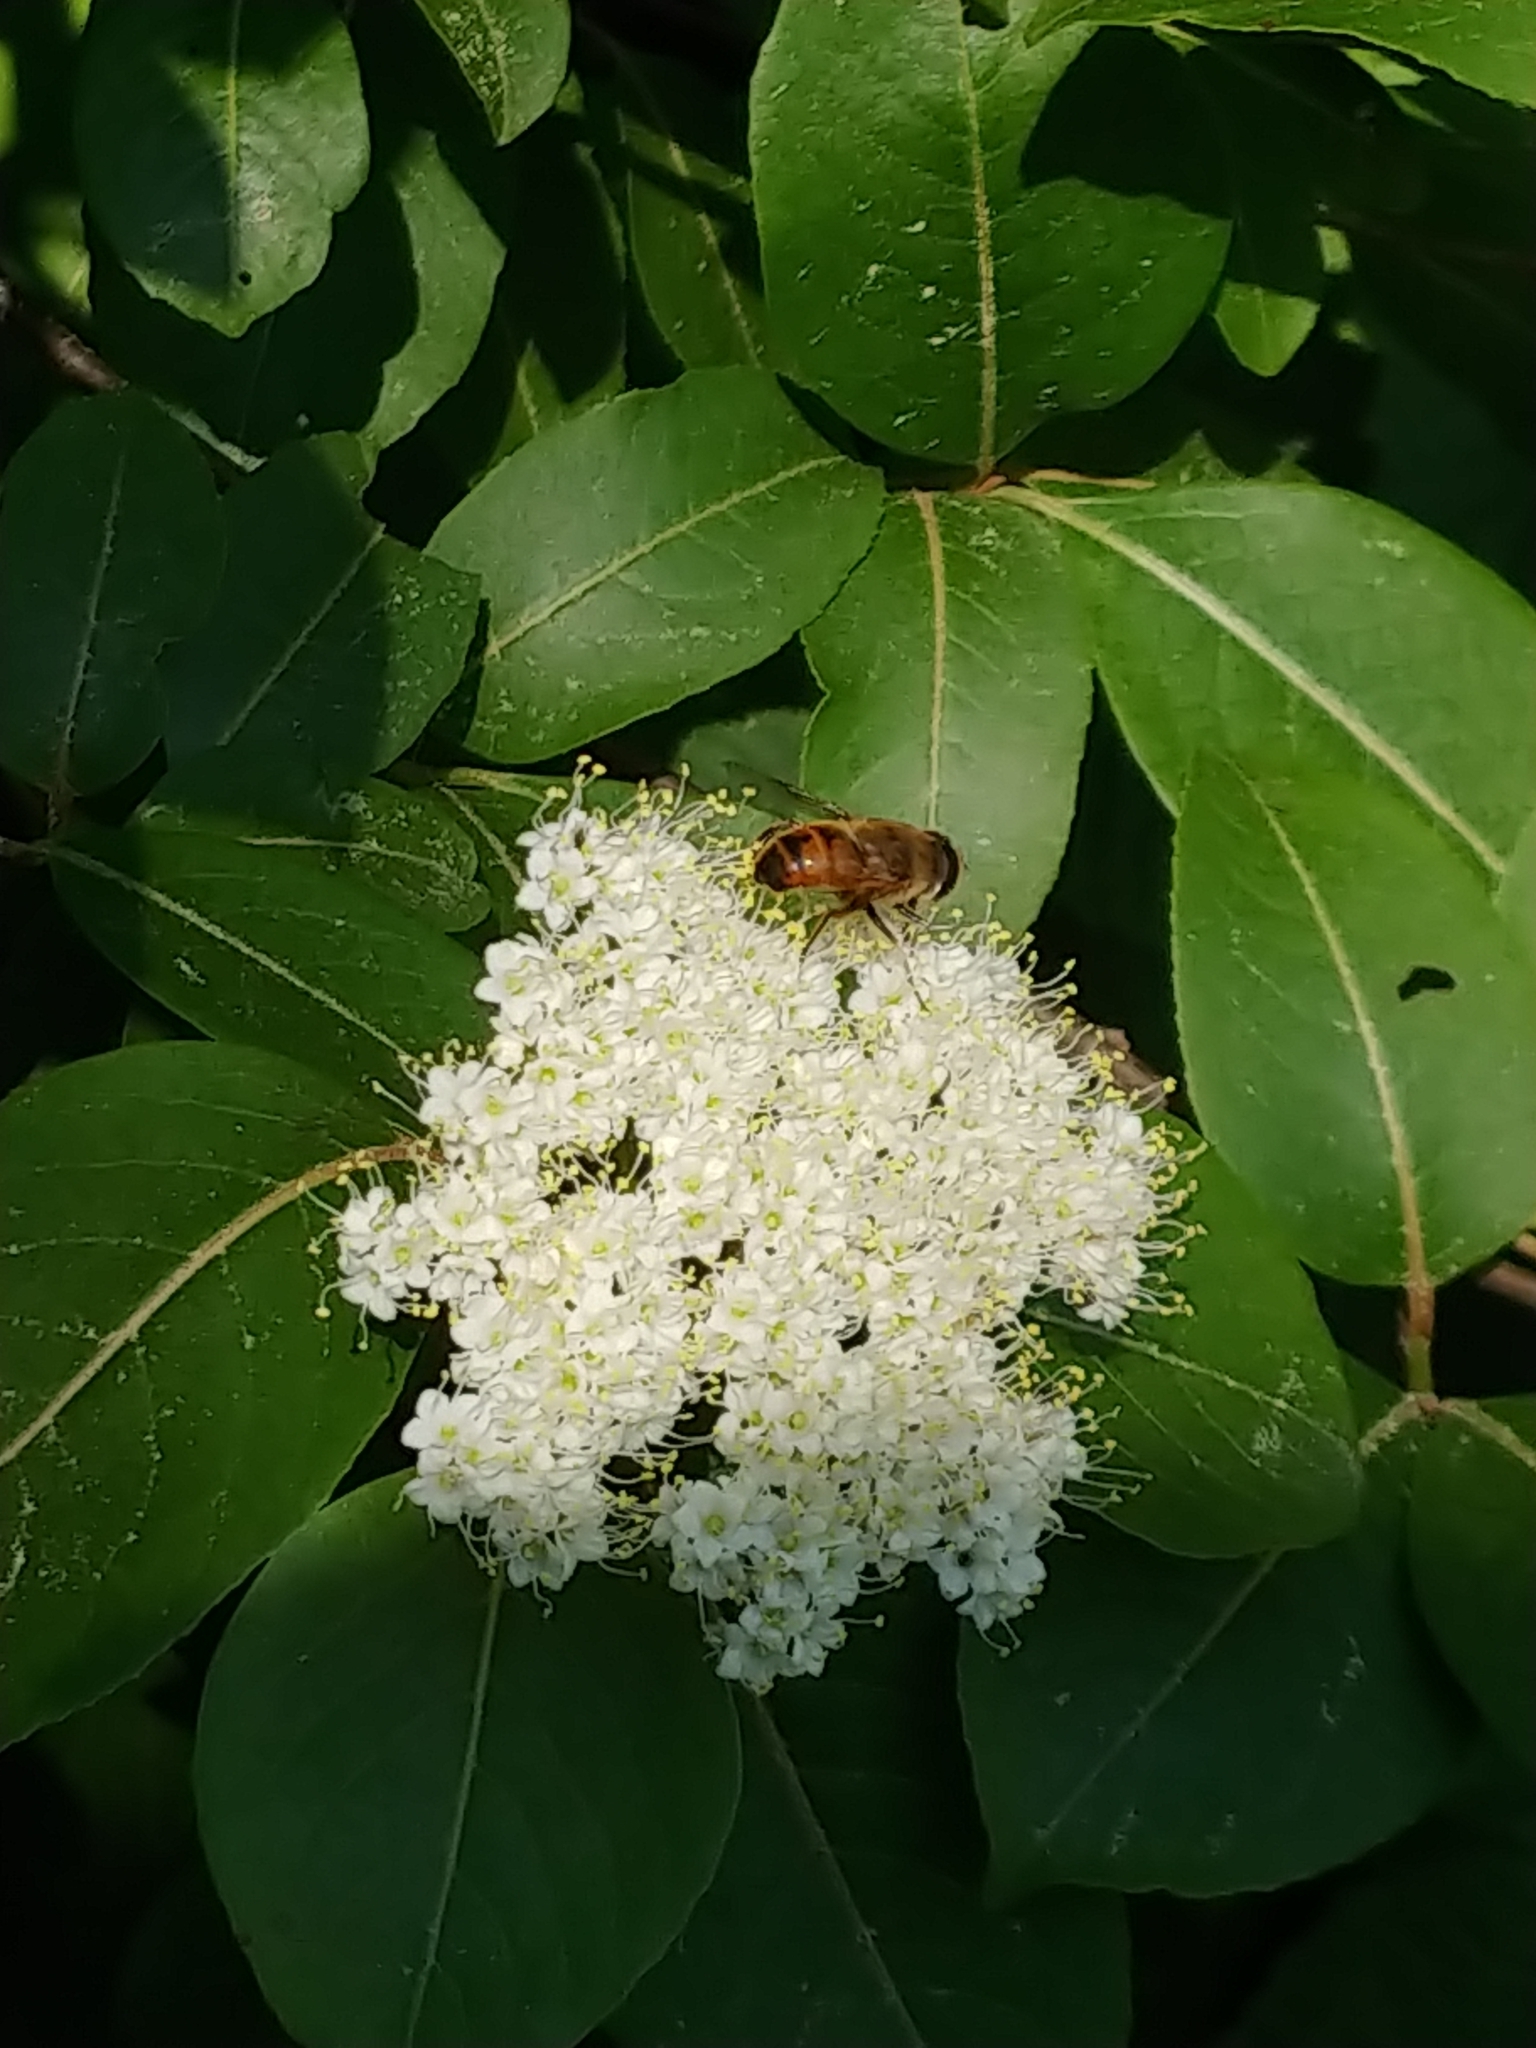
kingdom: Animalia
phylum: Arthropoda
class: Insecta
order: Diptera
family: Syrphidae
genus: Eristalis
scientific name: Eristalis tenax
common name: Drone fly
